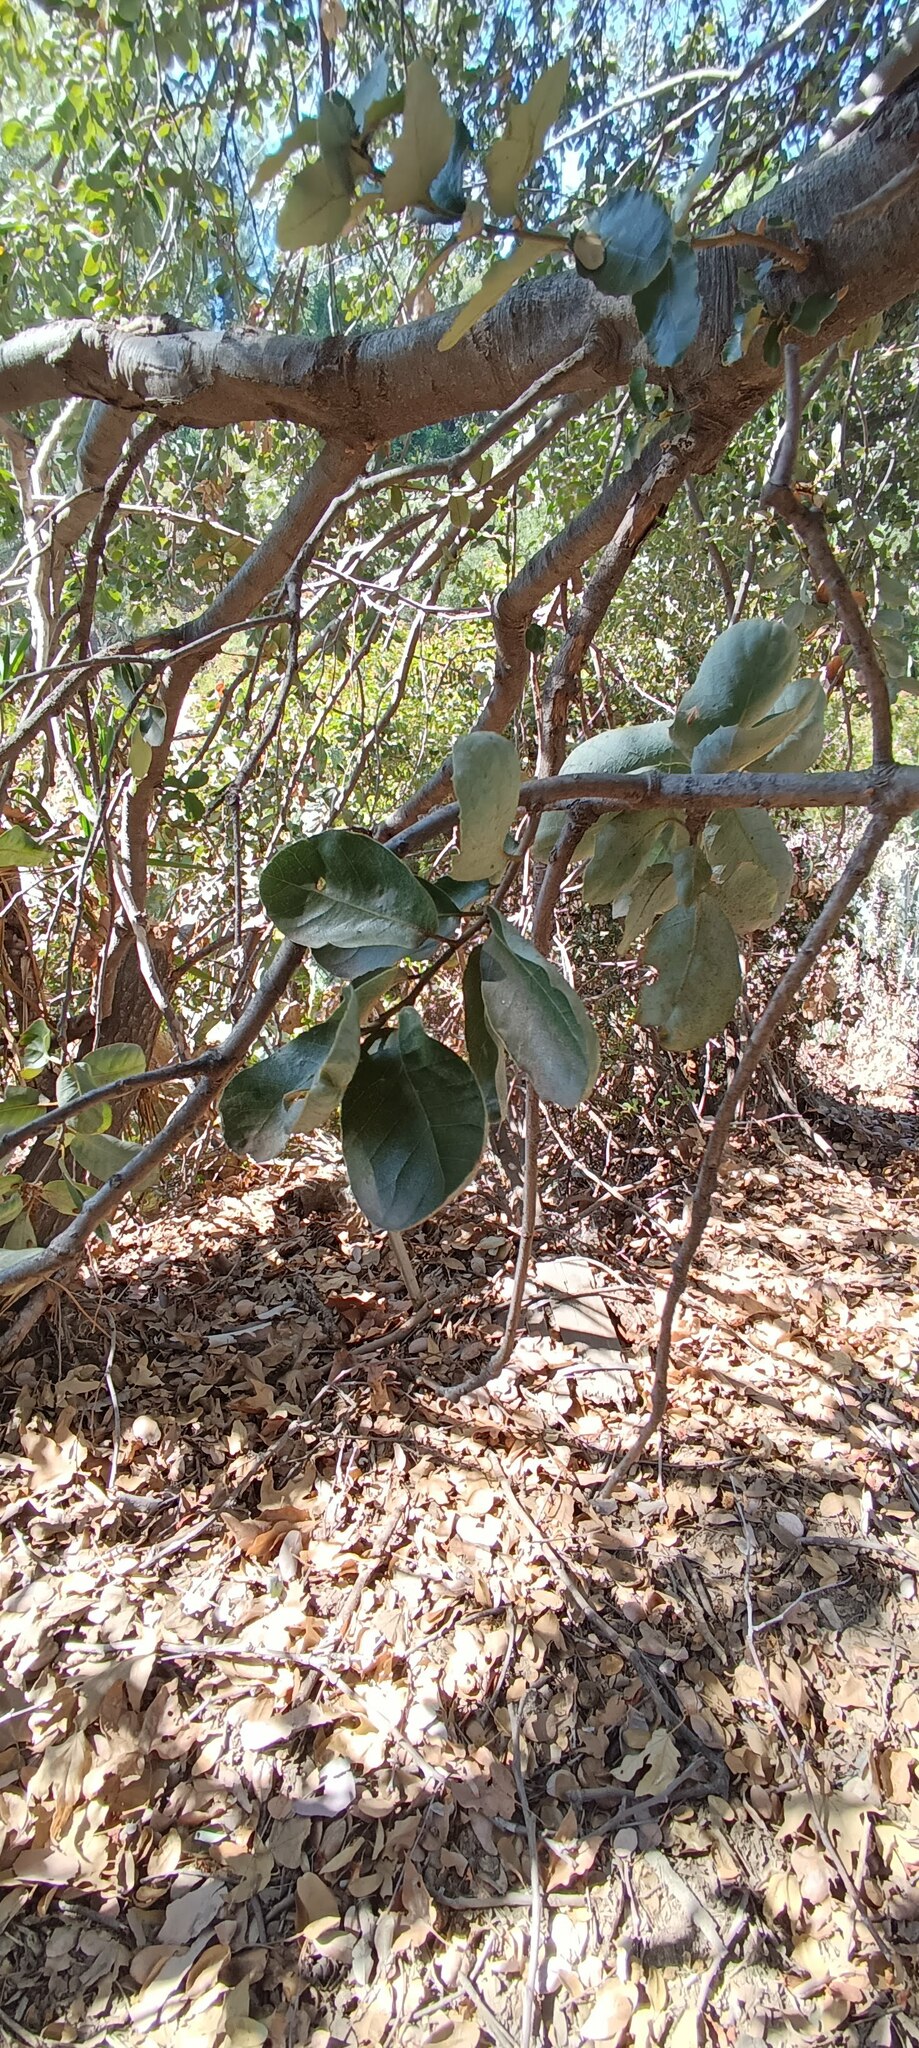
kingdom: Plantae
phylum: Tracheophyta
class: Magnoliopsida
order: Fagales
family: Fagaceae
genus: Quercus
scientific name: Quercus chrysolepis
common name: Canyon live oak
